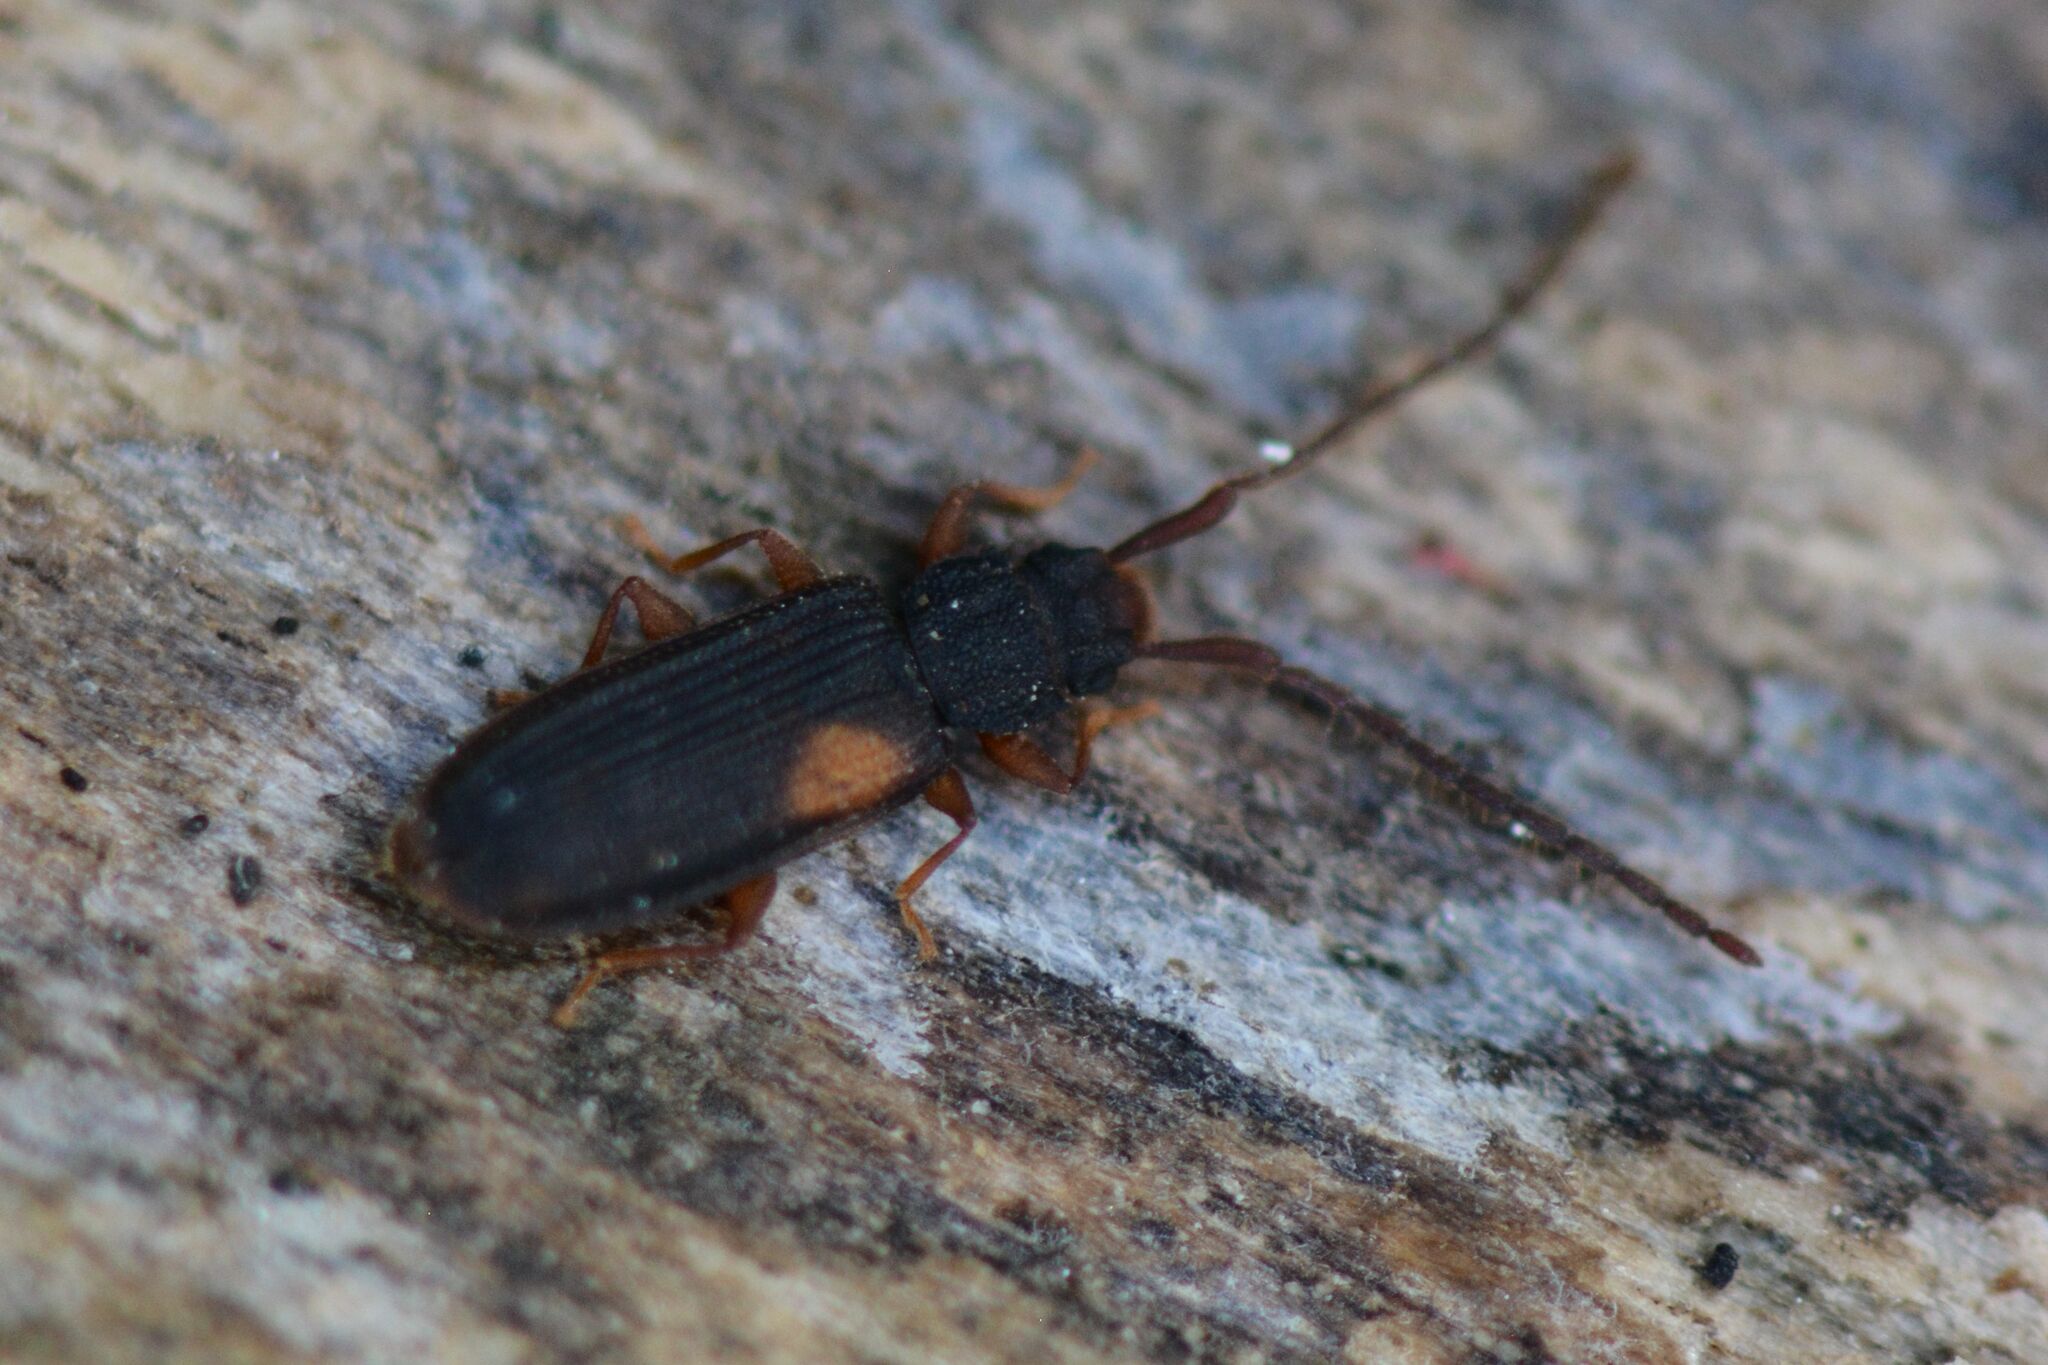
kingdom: Animalia
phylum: Arthropoda
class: Insecta
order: Coleoptera
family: Silvanidae
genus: Uleiota
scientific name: Uleiota planatus
